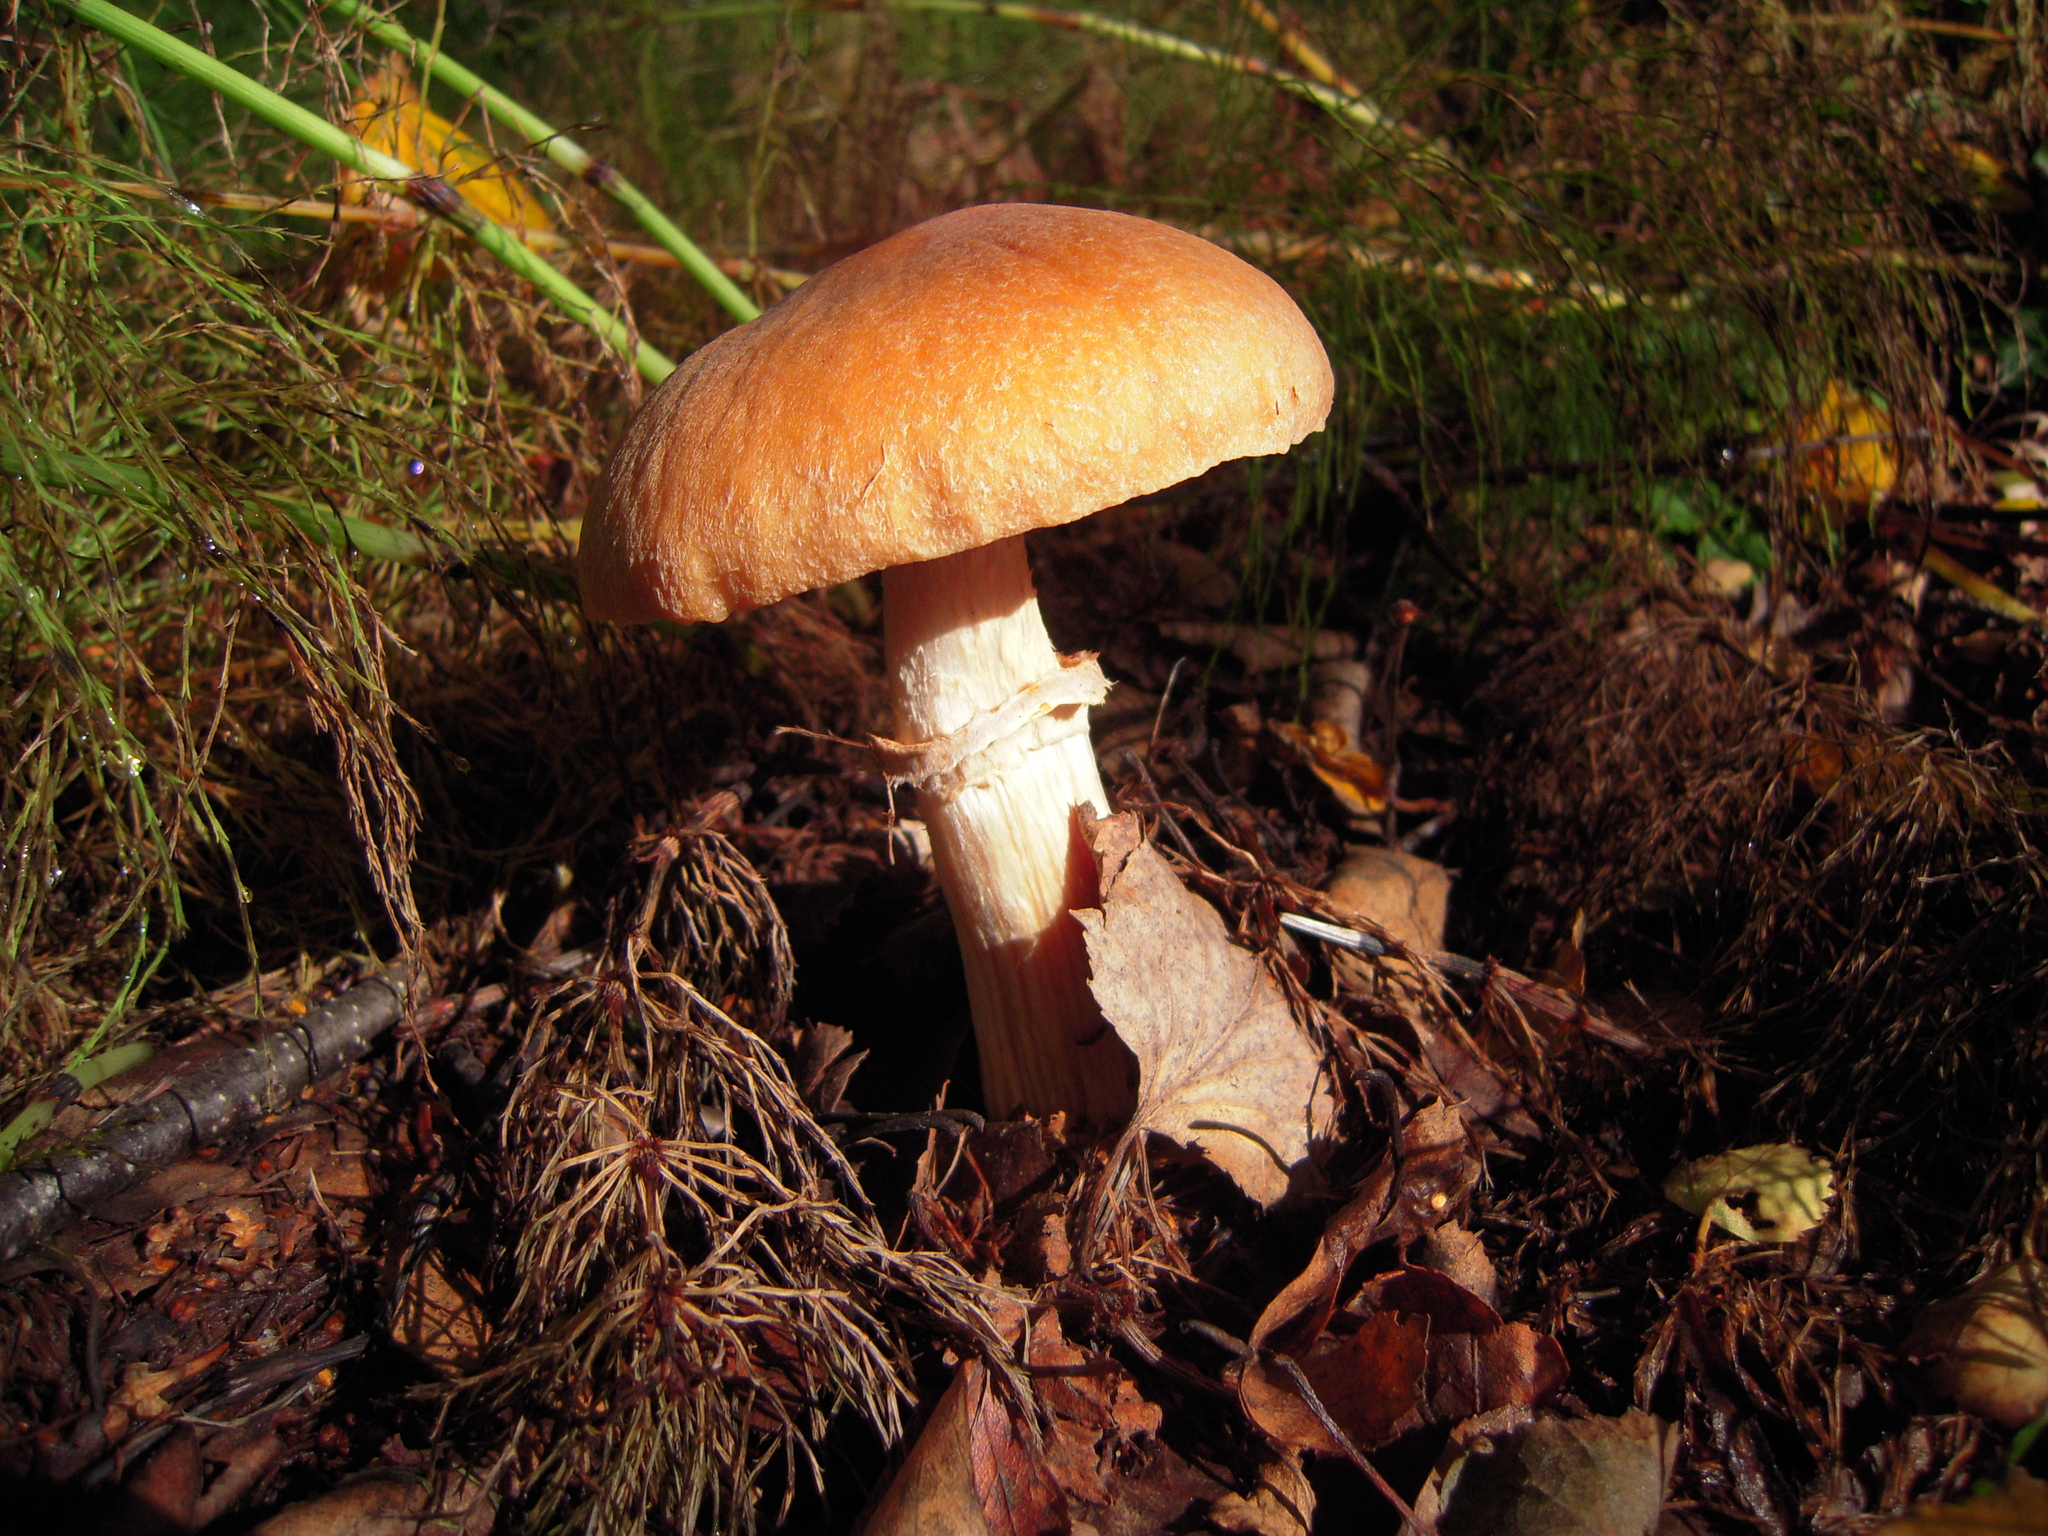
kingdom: Fungi
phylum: Basidiomycota
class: Agaricomycetes
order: Agaricales
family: Cortinariaceae
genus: Cortinarius
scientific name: Cortinarius caperatus
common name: The gypsy
